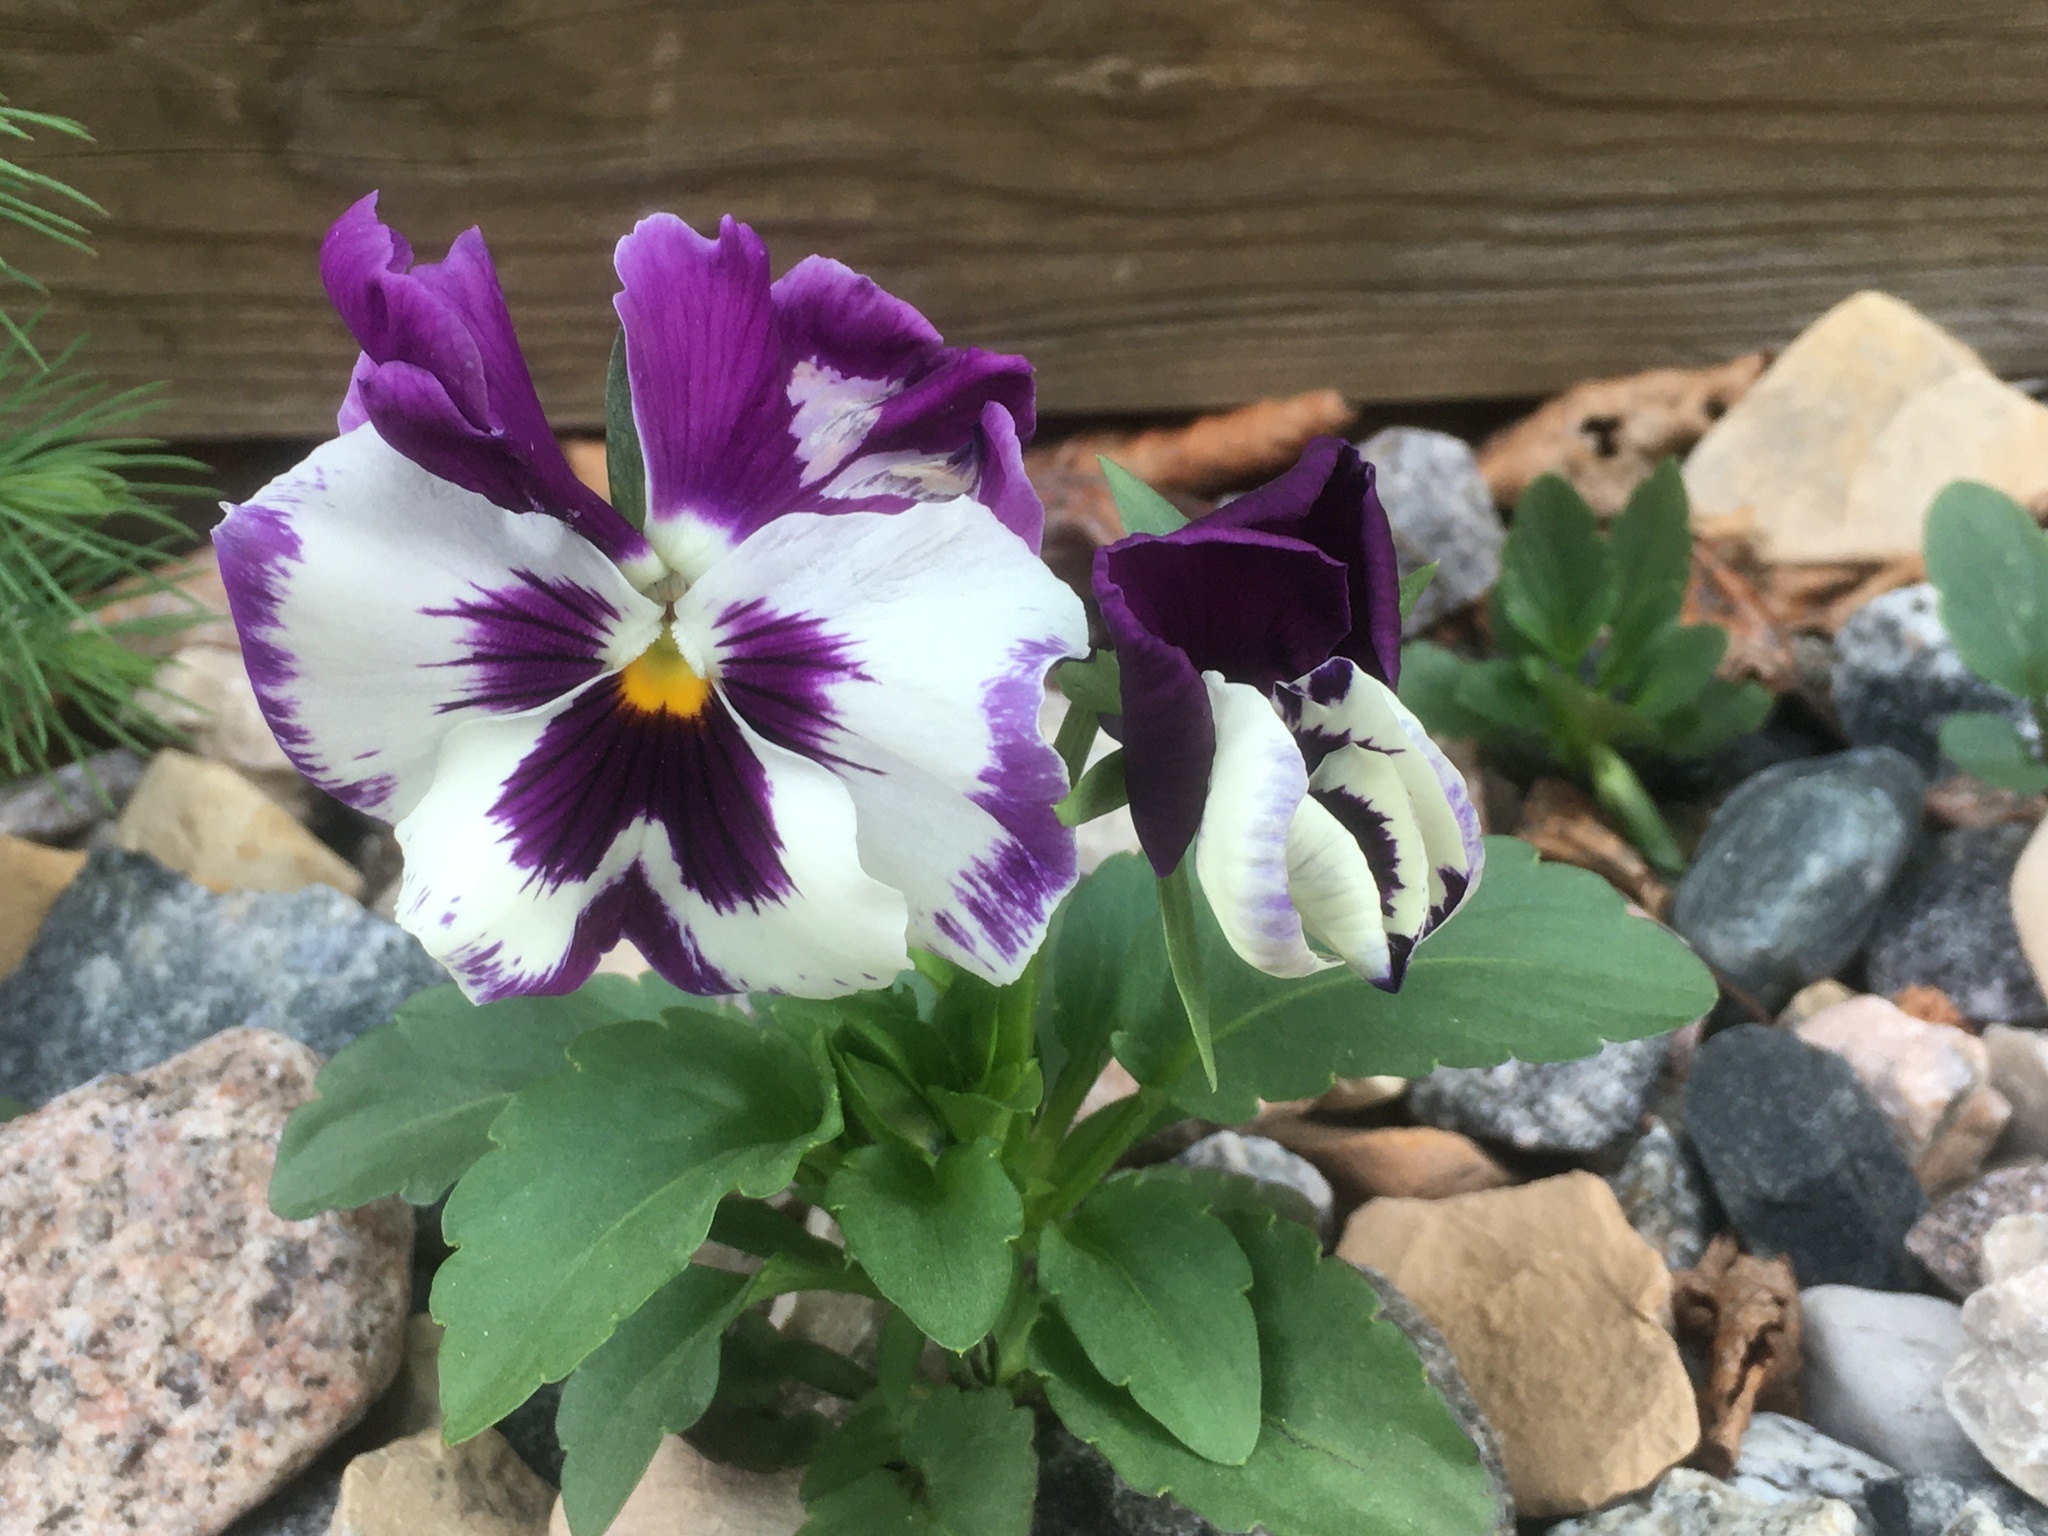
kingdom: Plantae
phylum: Tracheophyta
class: Magnoliopsida
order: Malpighiales
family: Violaceae
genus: Viola
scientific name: Viola wittrockiana
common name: Garden pansy
